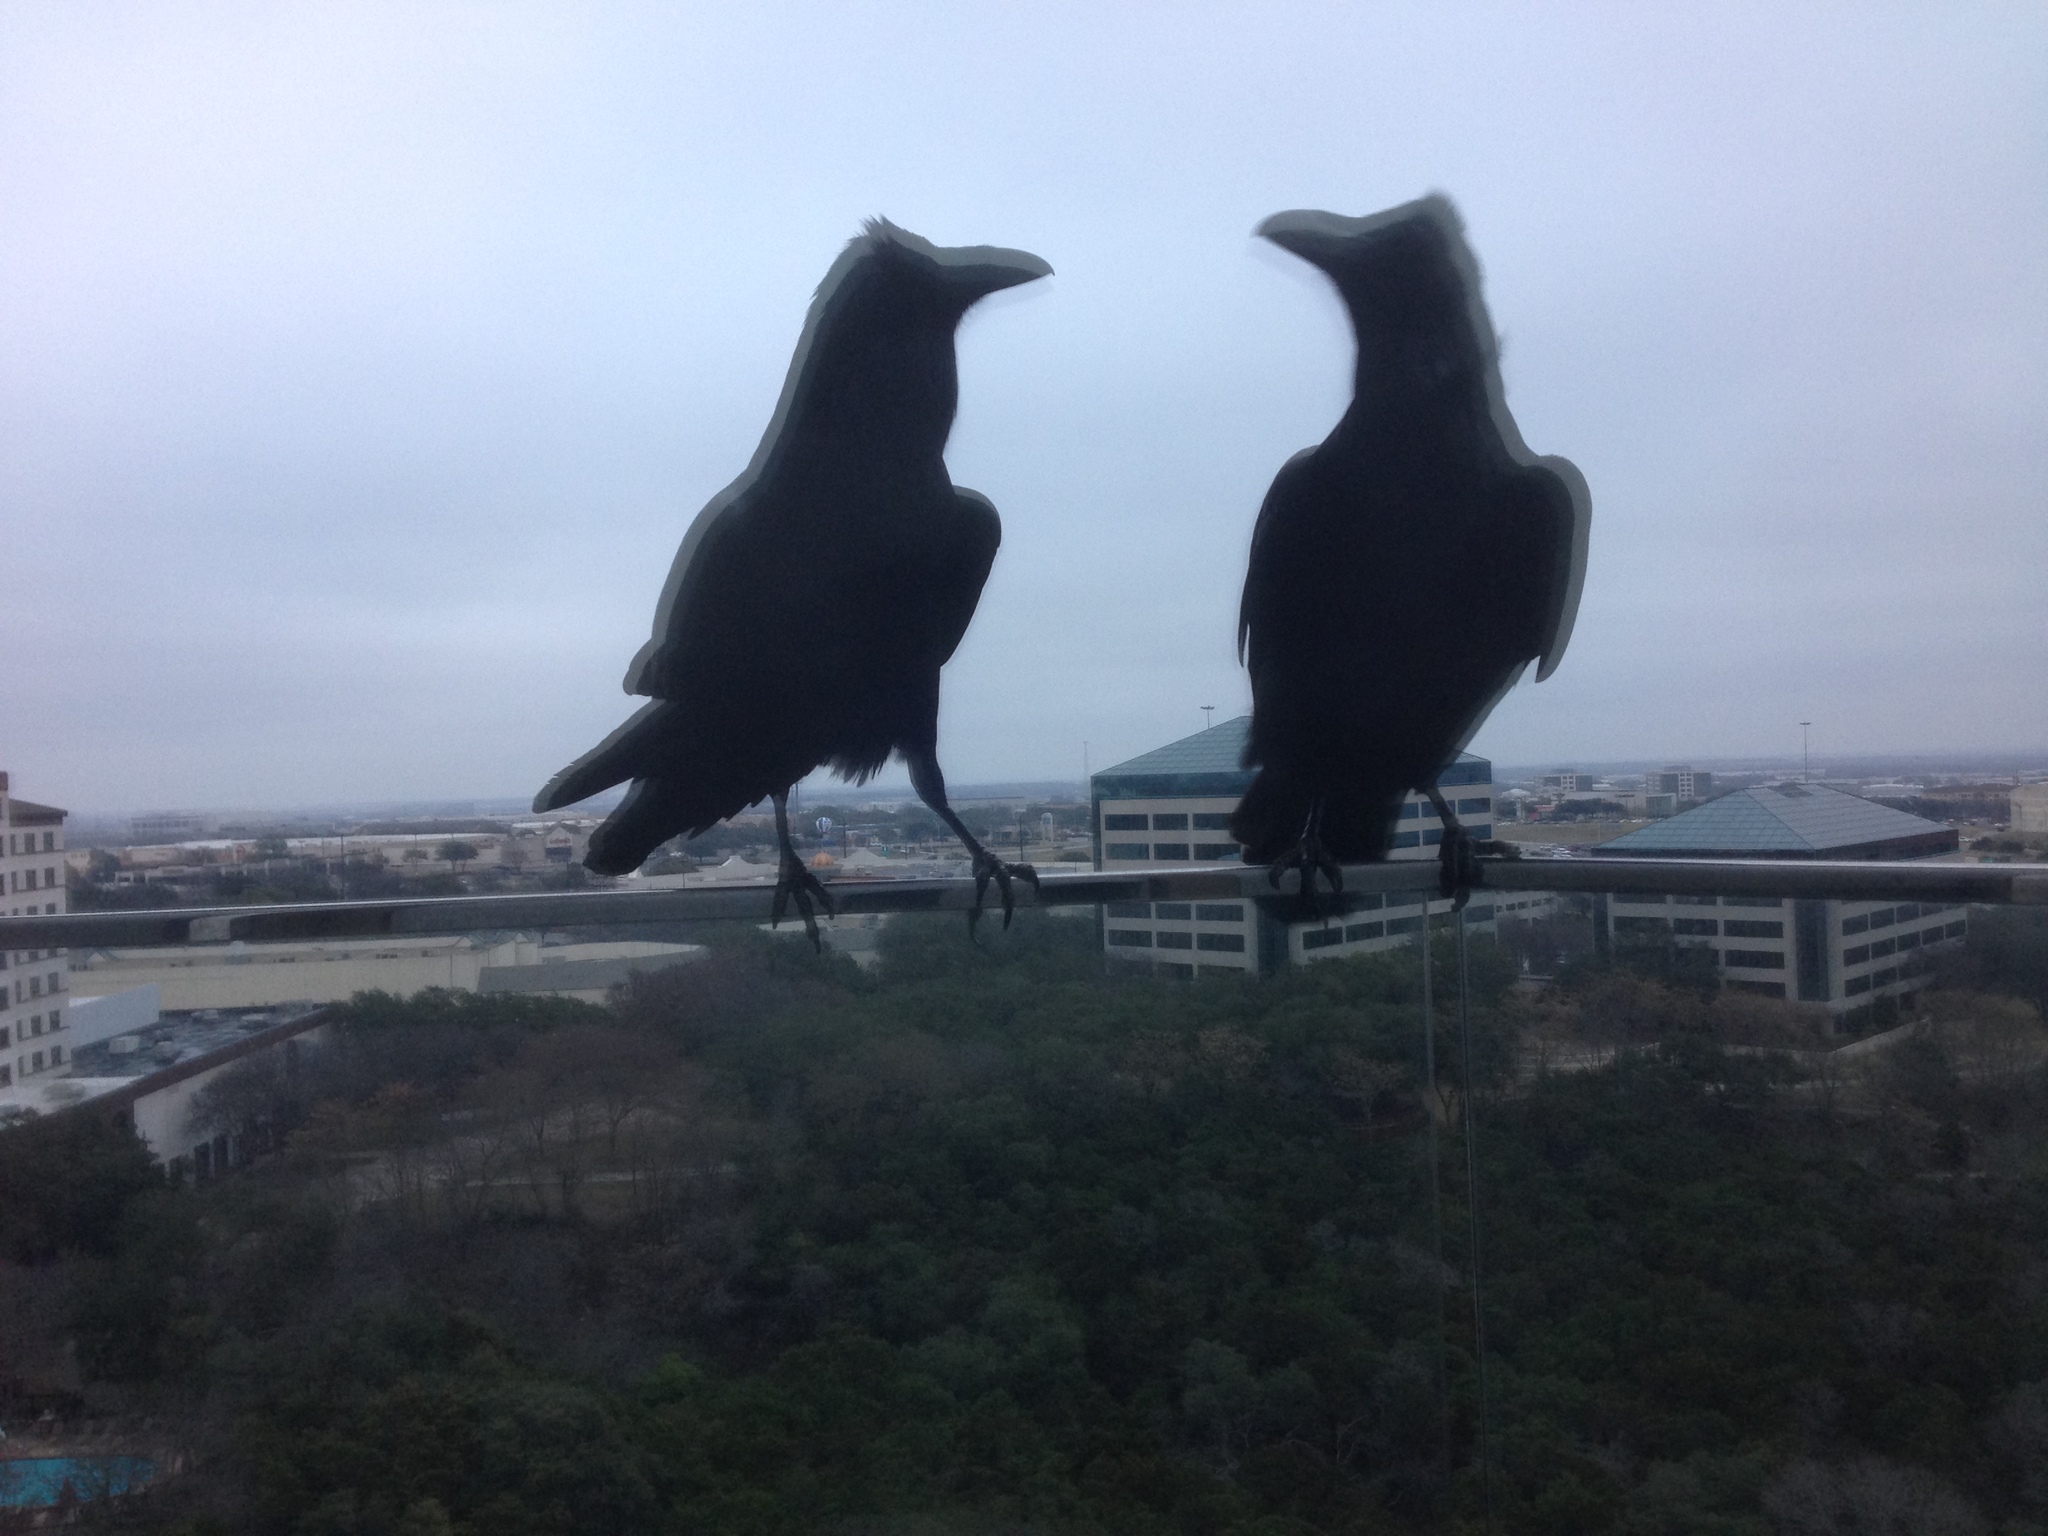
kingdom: Animalia
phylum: Chordata
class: Aves
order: Passeriformes
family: Corvidae
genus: Corvus
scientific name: Corvus corax
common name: Common raven
